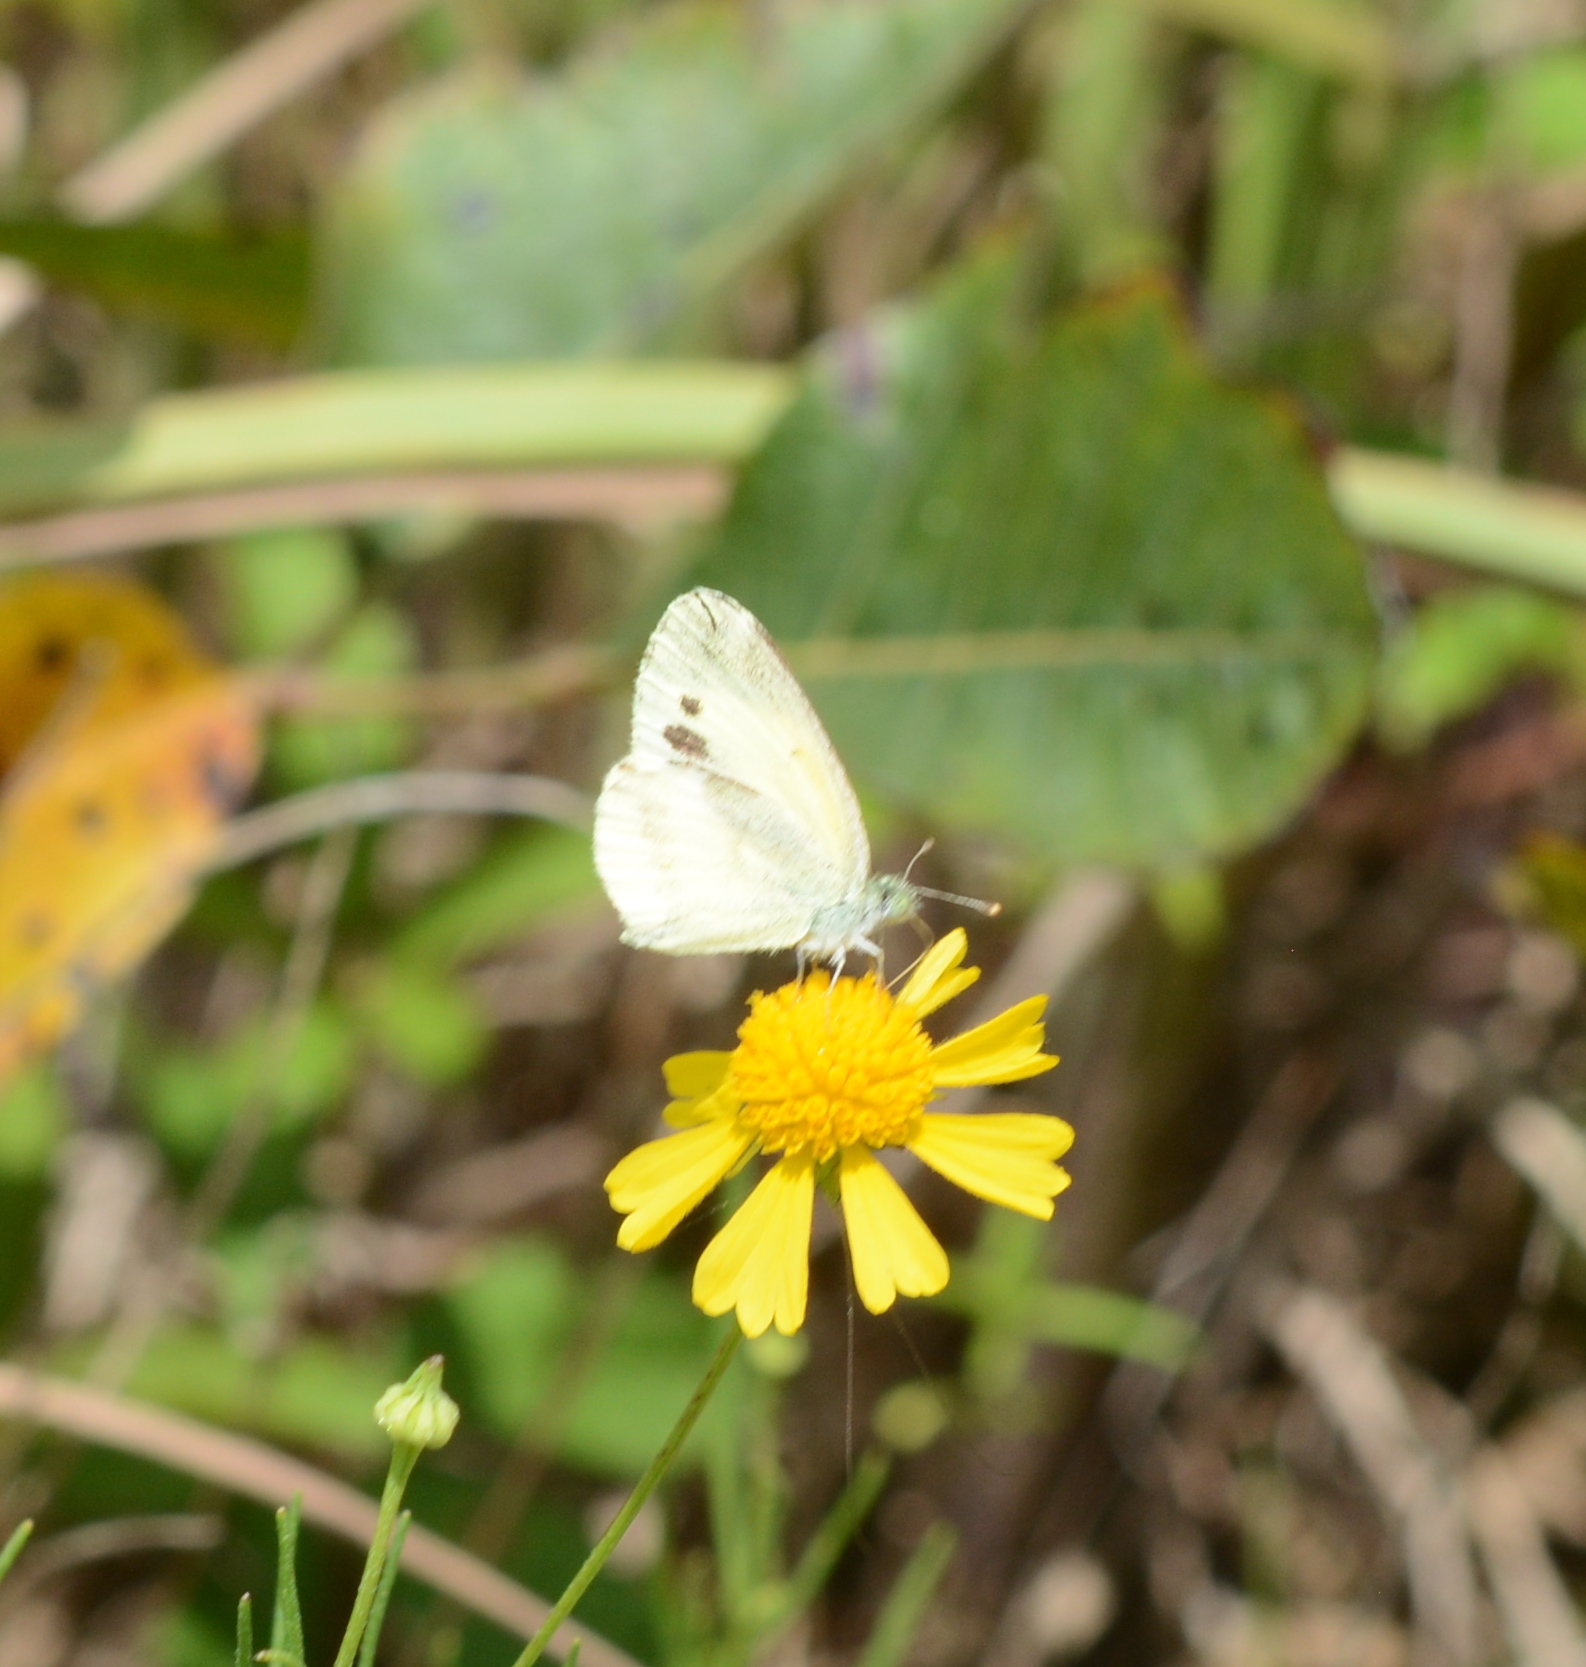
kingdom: Animalia
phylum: Arthropoda
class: Insecta
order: Lepidoptera
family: Pieridae
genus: Nathalis
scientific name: Nathalis iole
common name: Dainty sulphur
